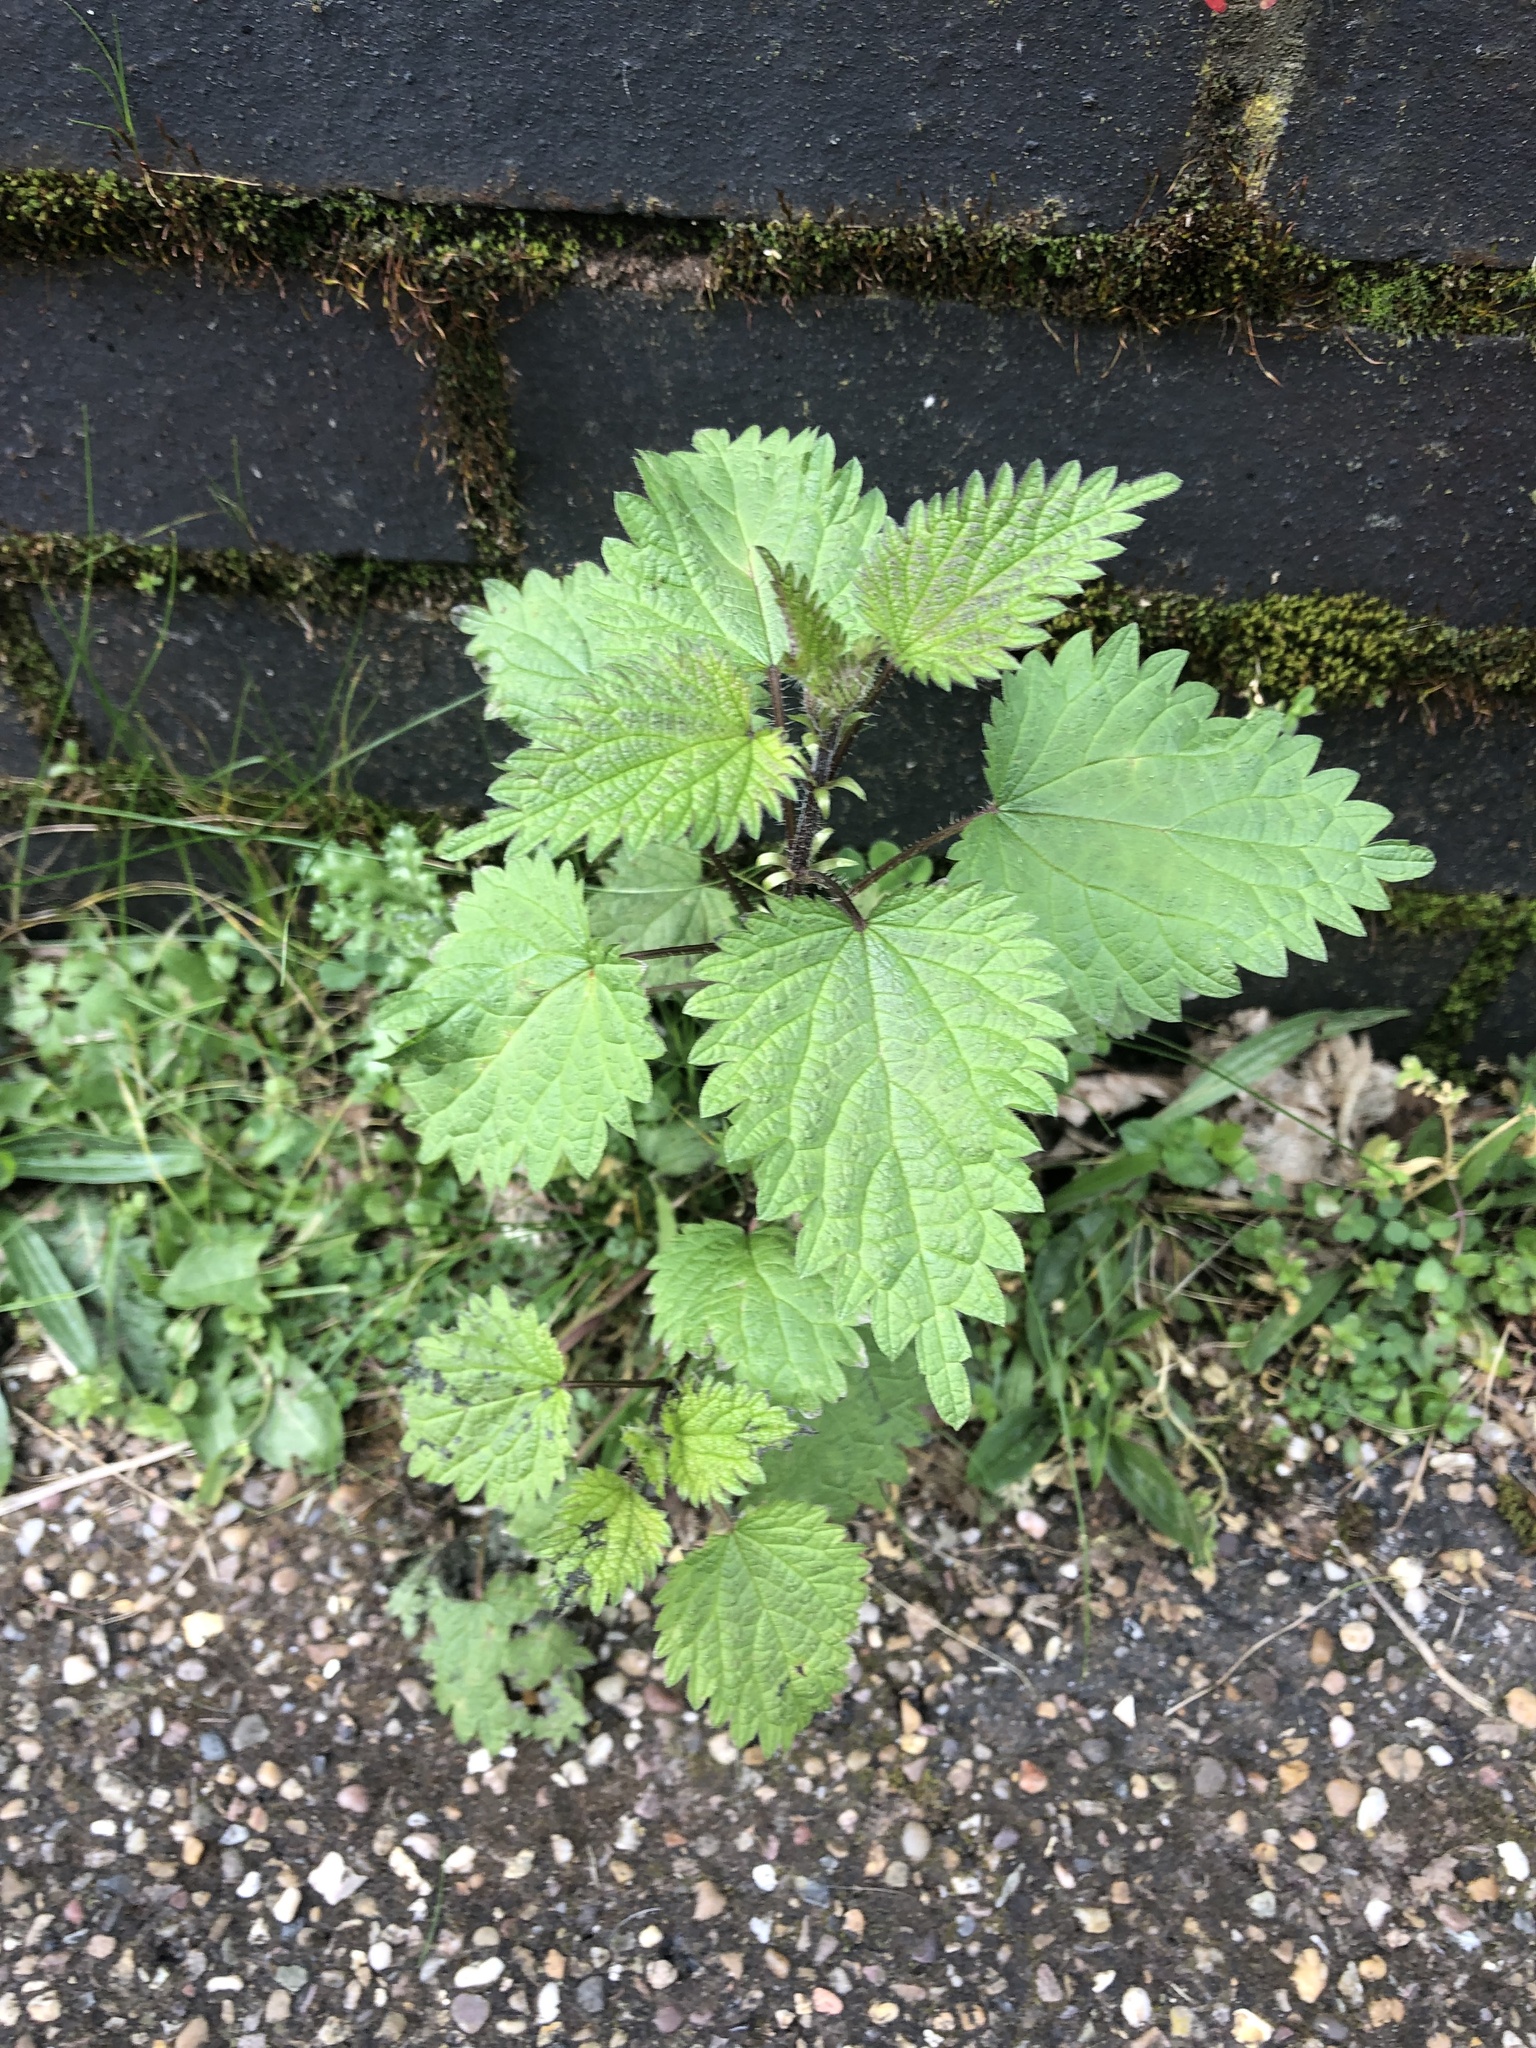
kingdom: Plantae
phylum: Tracheophyta
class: Magnoliopsida
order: Rosales
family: Urticaceae
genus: Urtica
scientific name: Urtica dioica
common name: Common nettle
